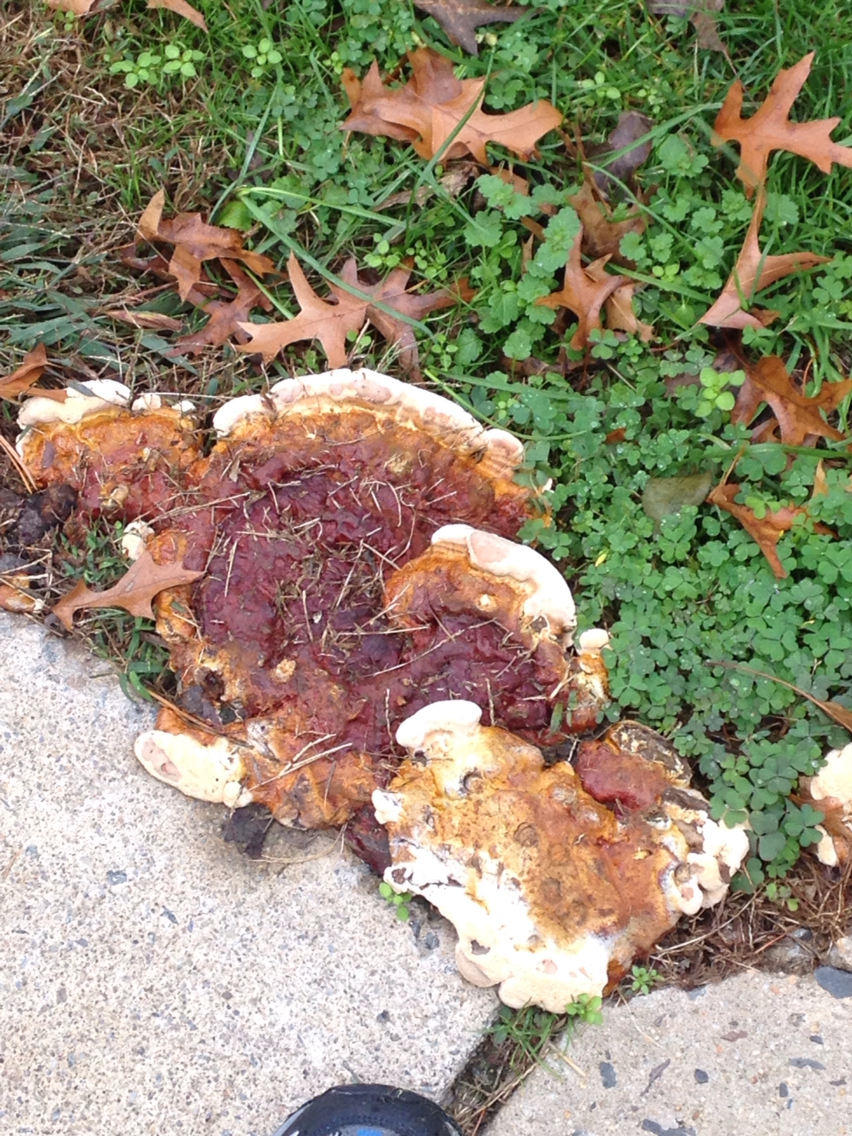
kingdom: Fungi
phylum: Basidiomycota
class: Agaricomycetes
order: Polyporales
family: Polyporaceae
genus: Ganoderma
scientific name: Ganoderma resinaceum
